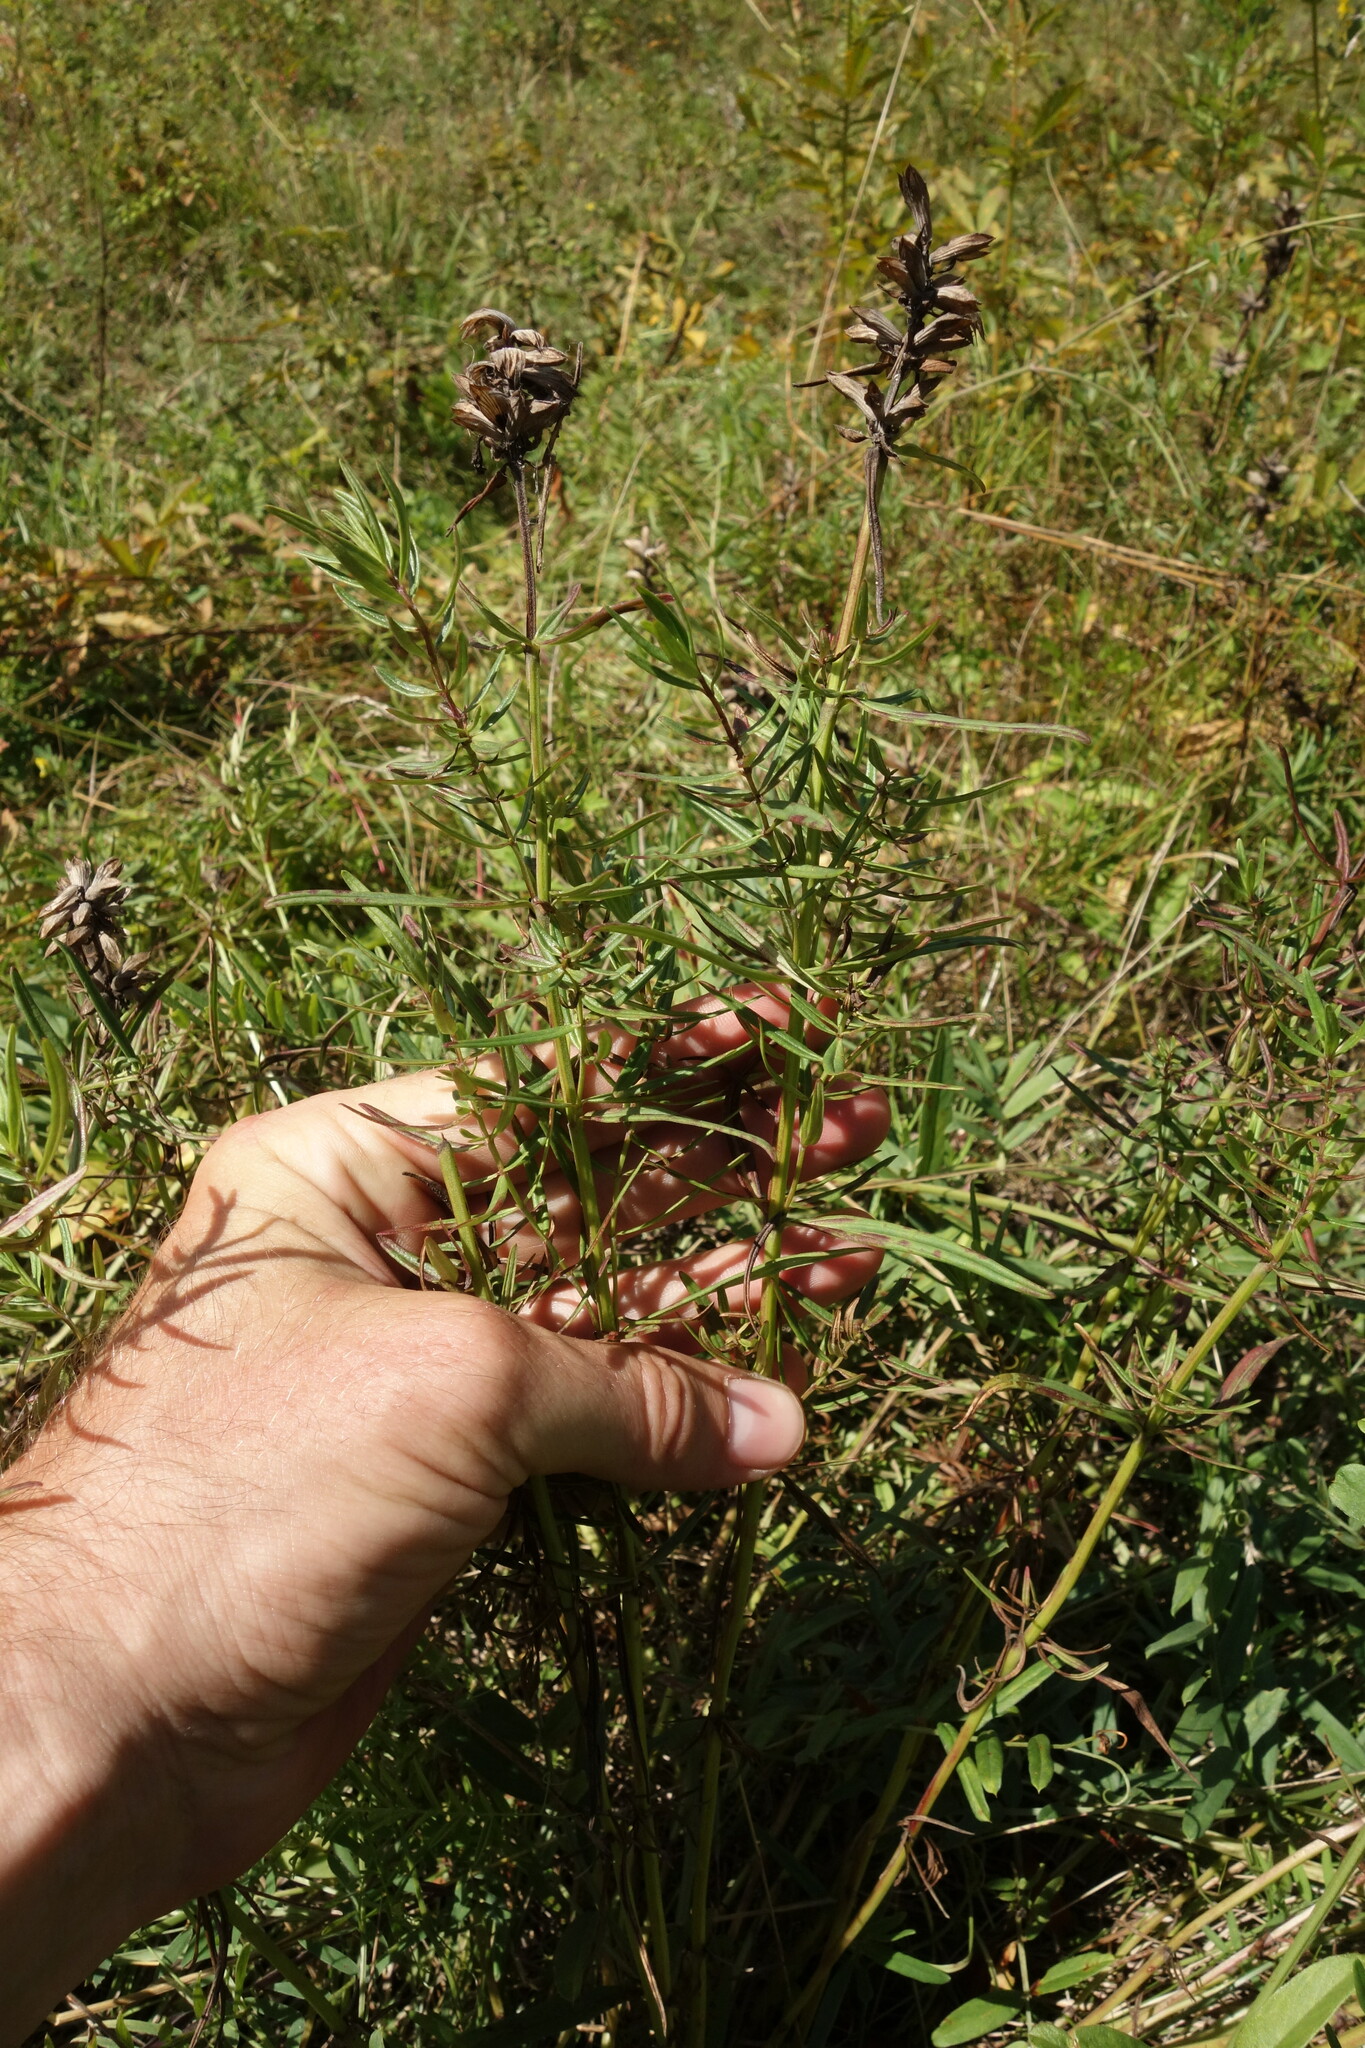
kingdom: Plantae
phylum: Tracheophyta
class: Magnoliopsida
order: Lamiales
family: Lamiaceae
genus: Dracocephalum
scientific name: Dracocephalum ruyschiana
